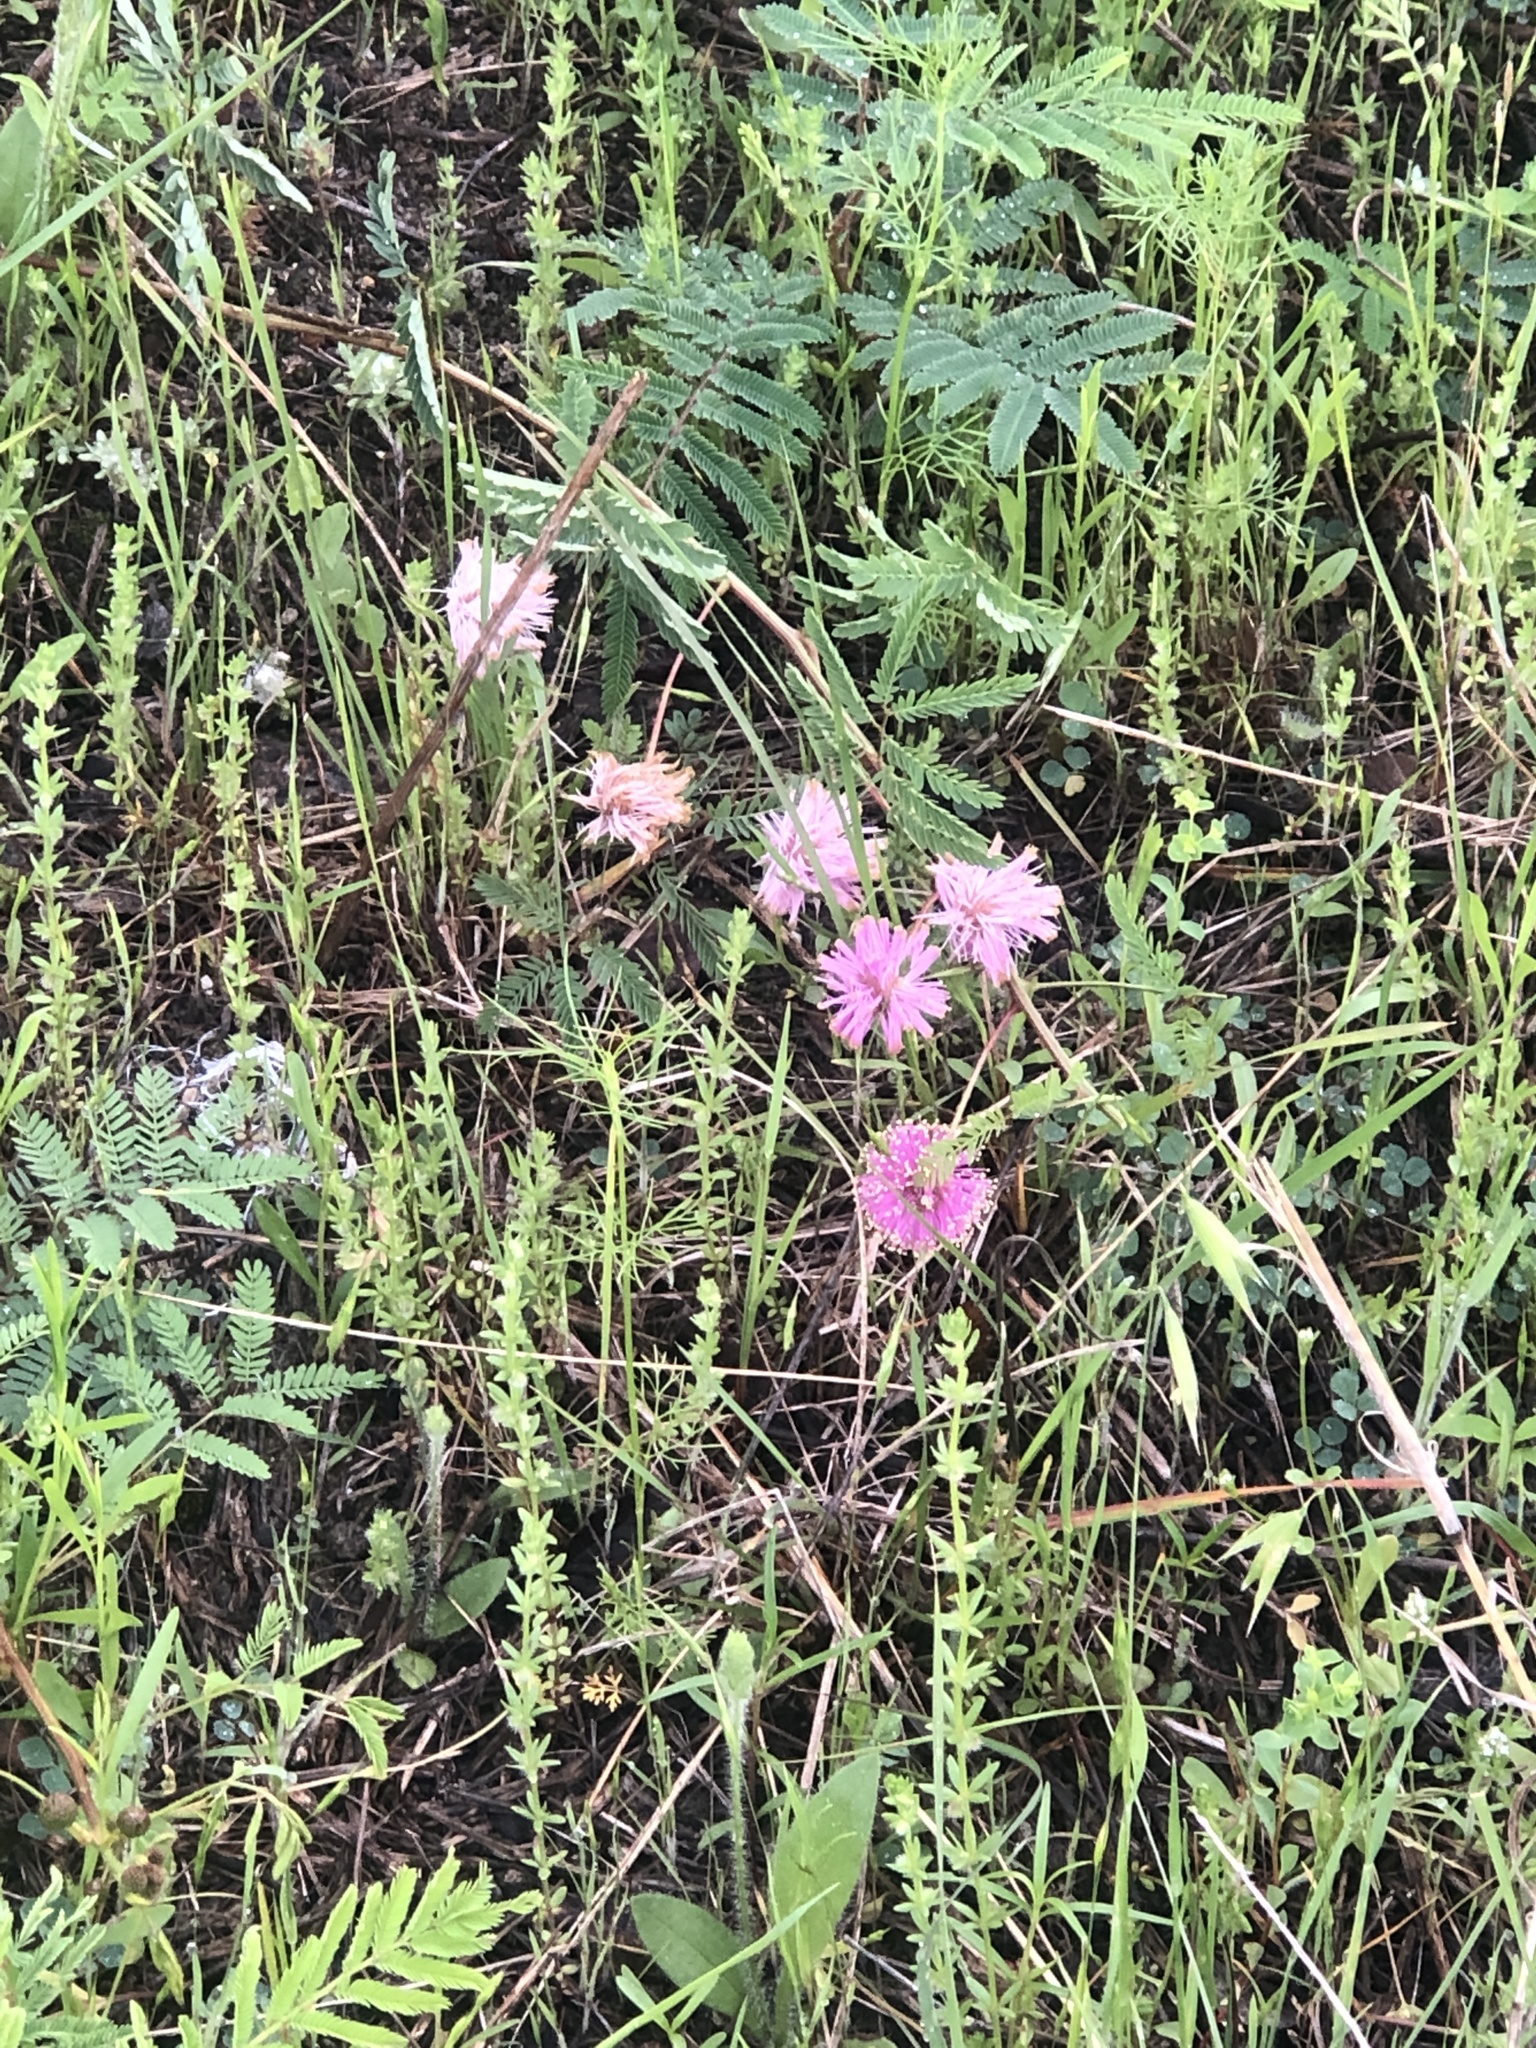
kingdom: Plantae
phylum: Tracheophyta
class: Magnoliopsida
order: Fabales
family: Fabaceae
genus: Mimosa
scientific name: Mimosa quadrivalvis
